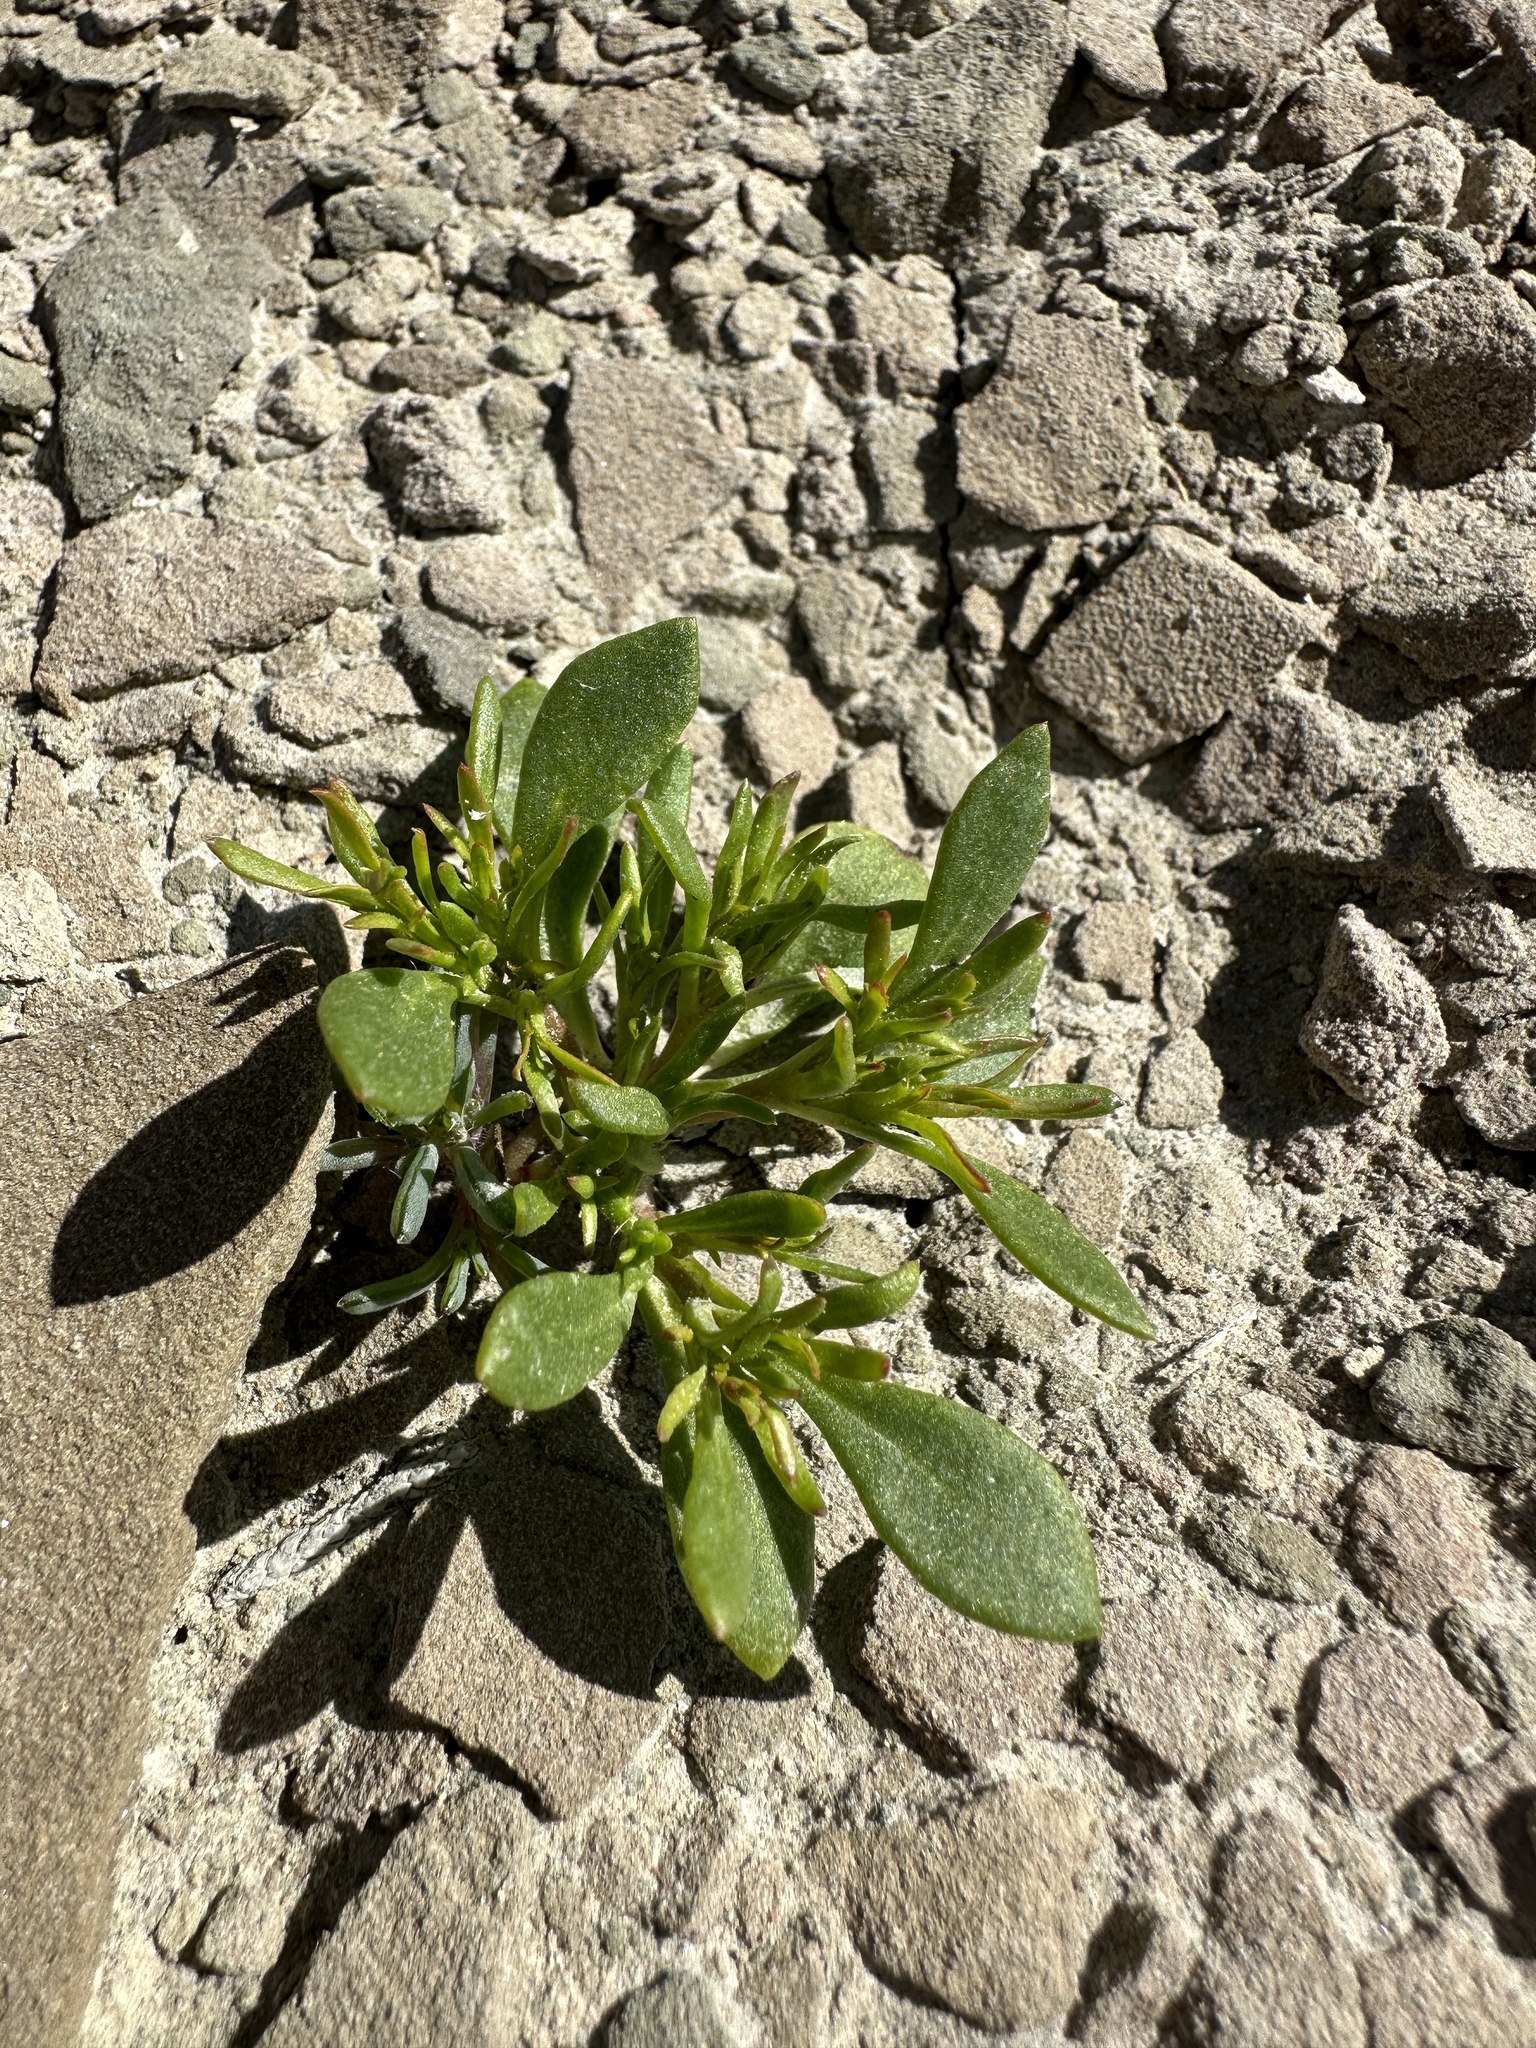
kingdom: Plantae
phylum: Tracheophyta
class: Magnoliopsida
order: Caryophyllales
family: Polygonaceae
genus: Stenogonum
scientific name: Stenogonum salsuginosum
